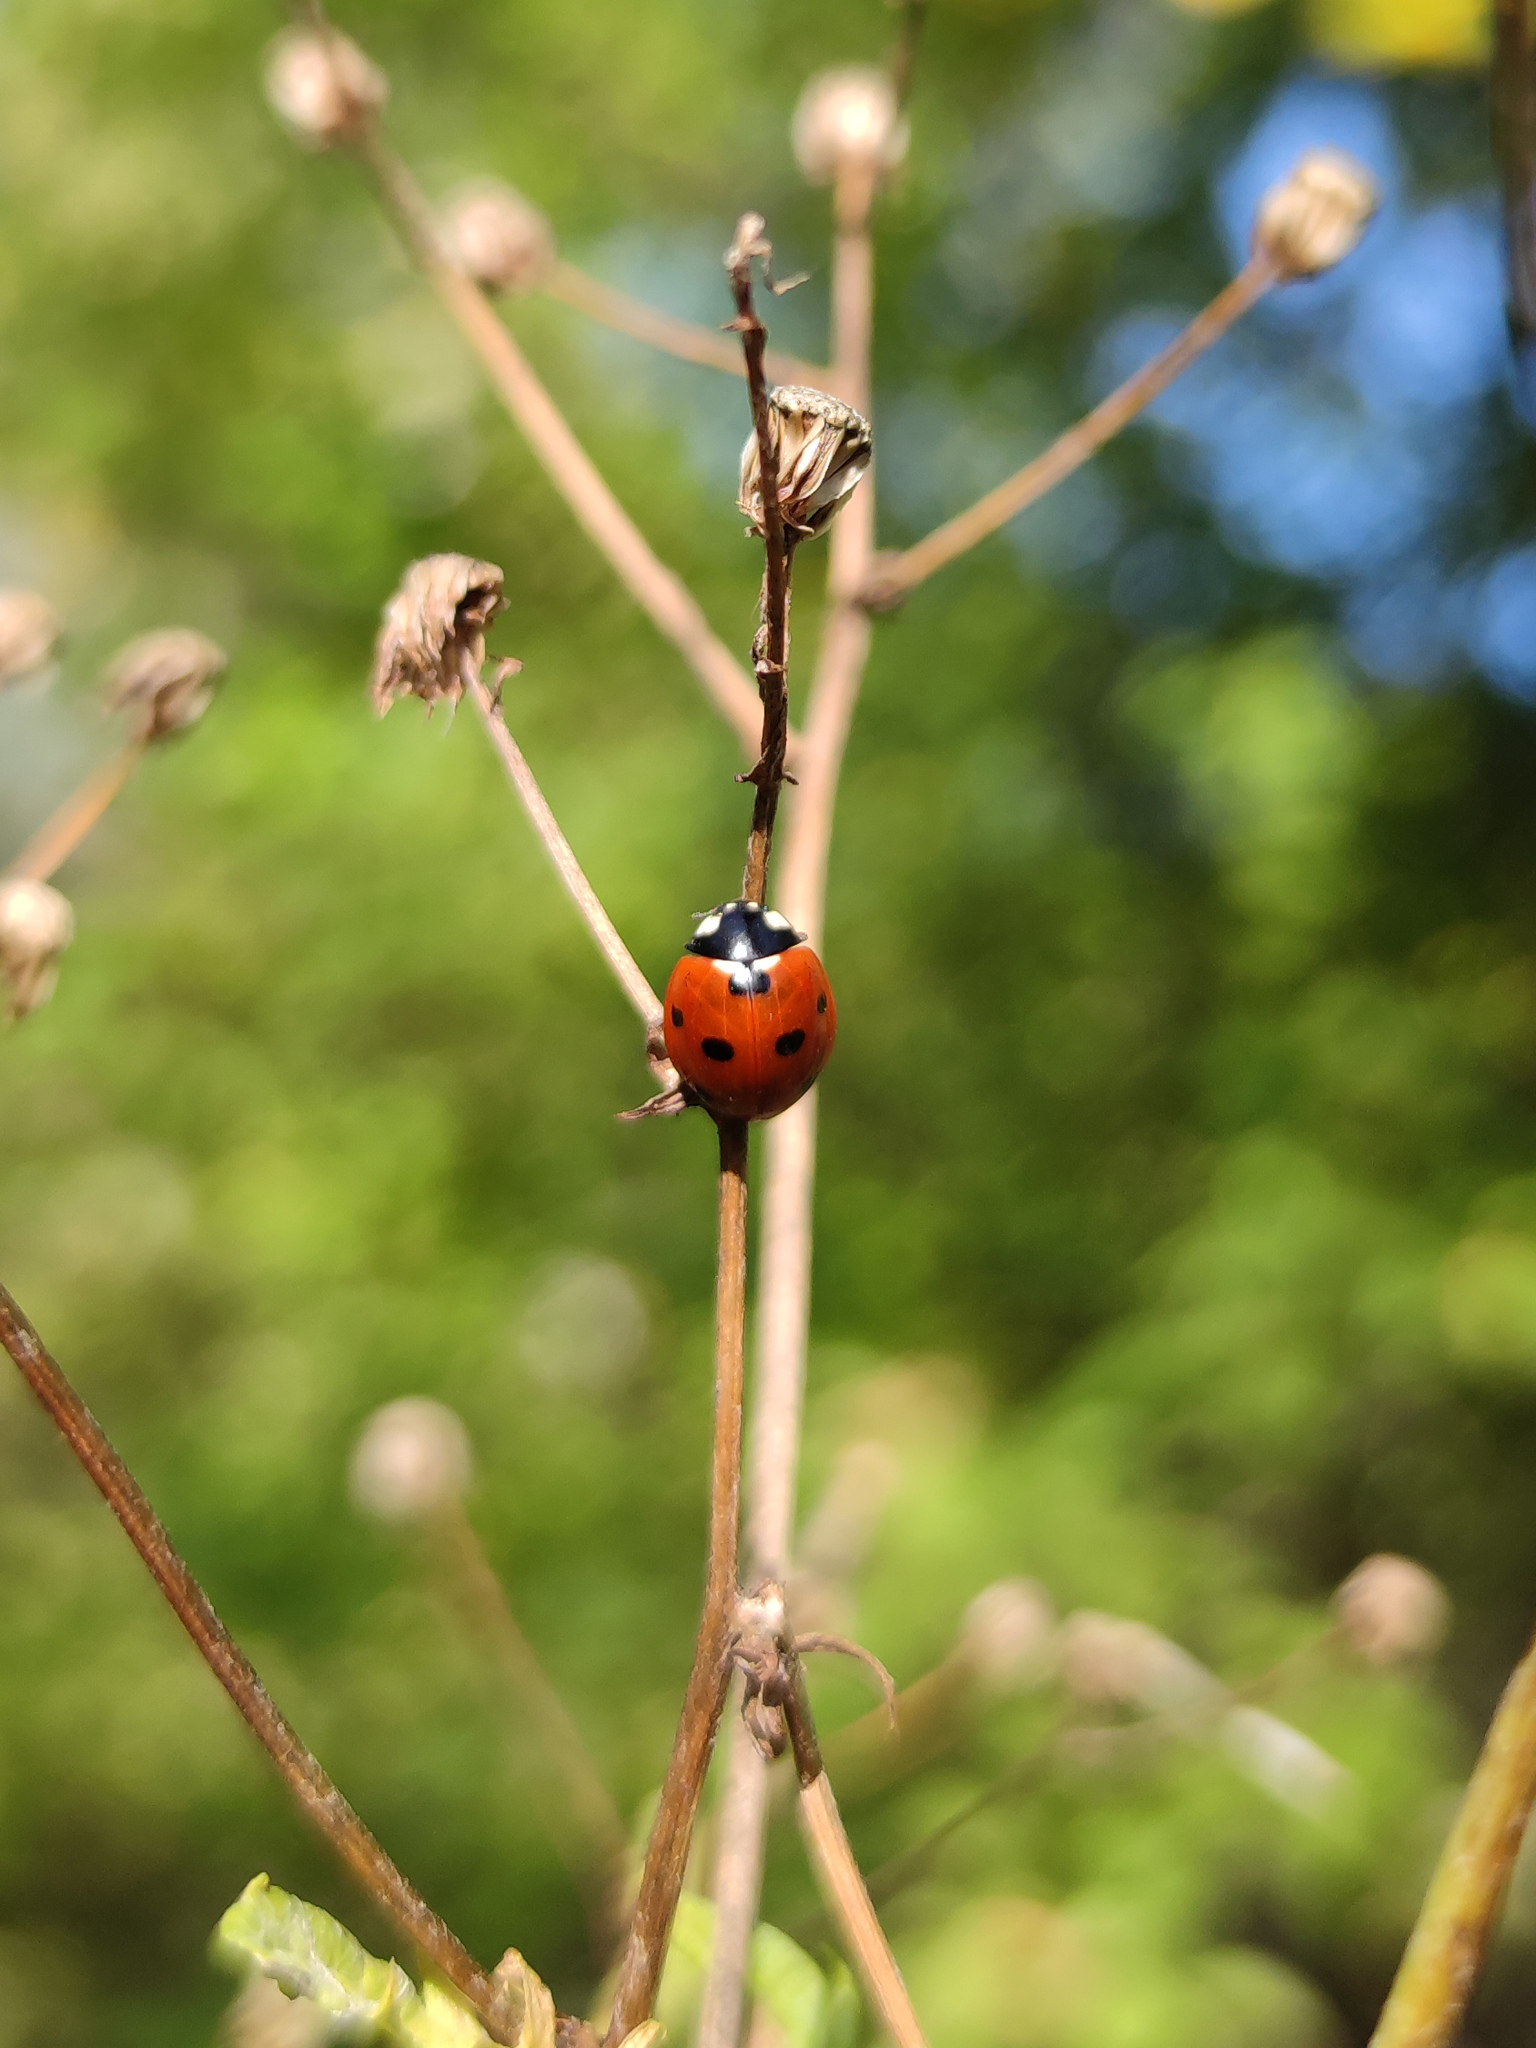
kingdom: Animalia
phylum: Arthropoda
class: Insecta
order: Coleoptera
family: Coccinellidae
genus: Coccinella
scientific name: Coccinella septempunctata
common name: Sevenspotted lady beetle
